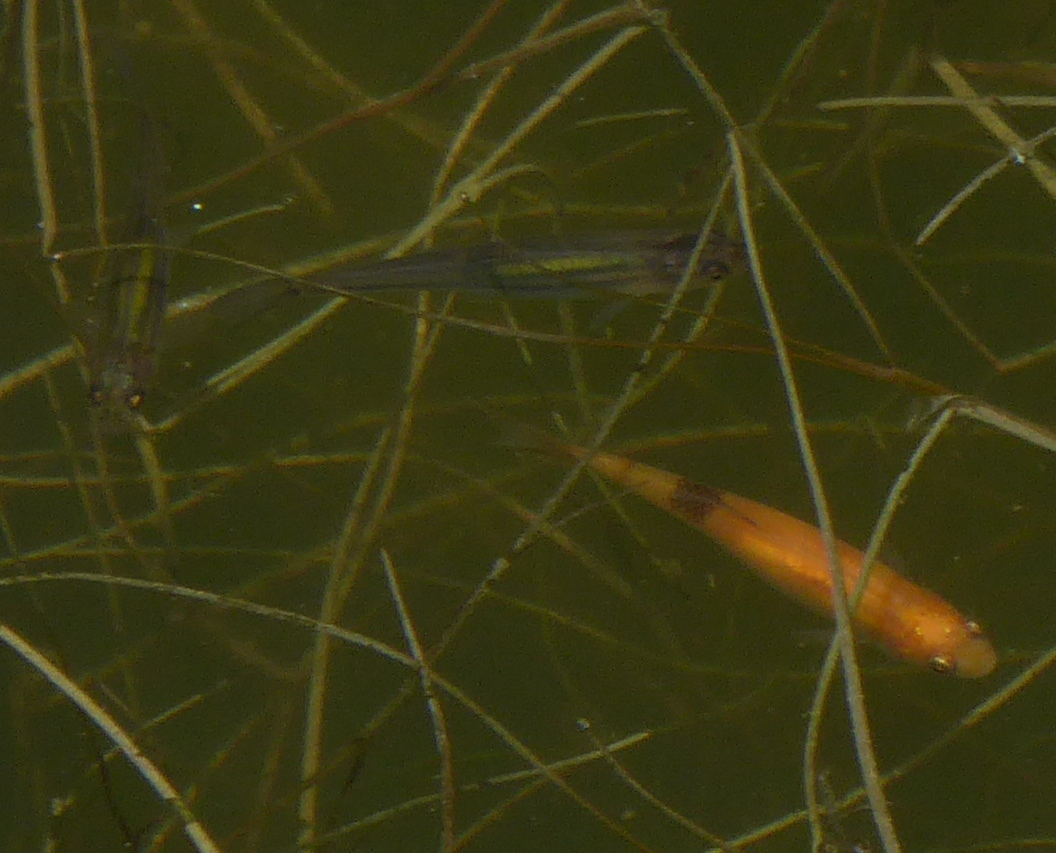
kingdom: Animalia
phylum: Chordata
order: Cypriniformes
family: Cyprinidae
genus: Pimephales
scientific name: Pimephales promelas
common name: Fathead minnow
